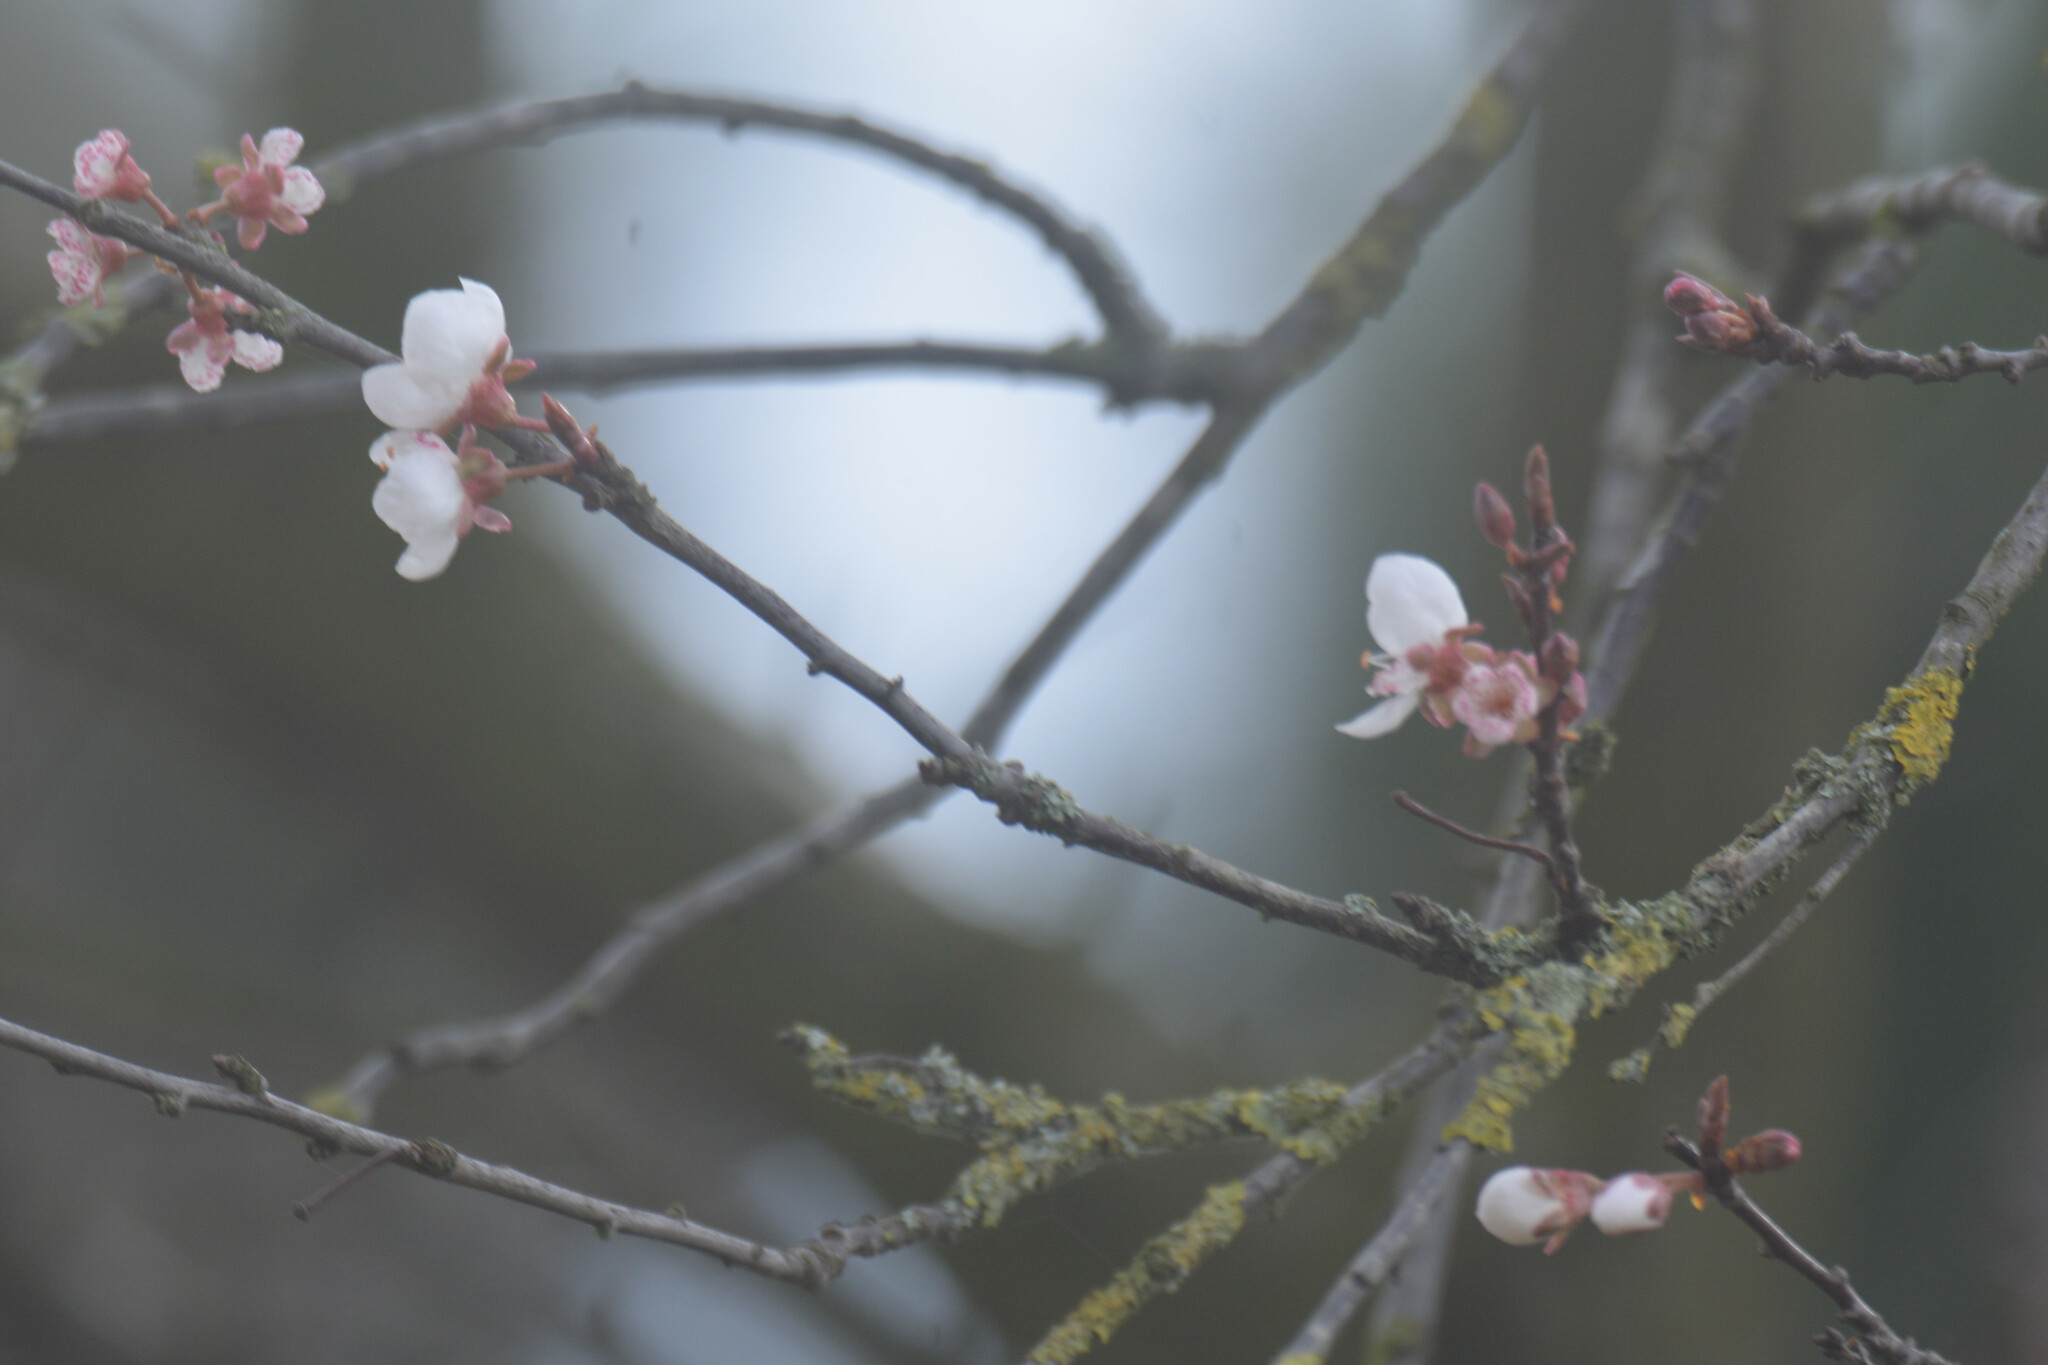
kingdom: Plantae
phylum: Tracheophyta
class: Magnoliopsida
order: Rosales
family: Rosaceae
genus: Prunus
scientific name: Prunus cerasifera
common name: Cherry plum
